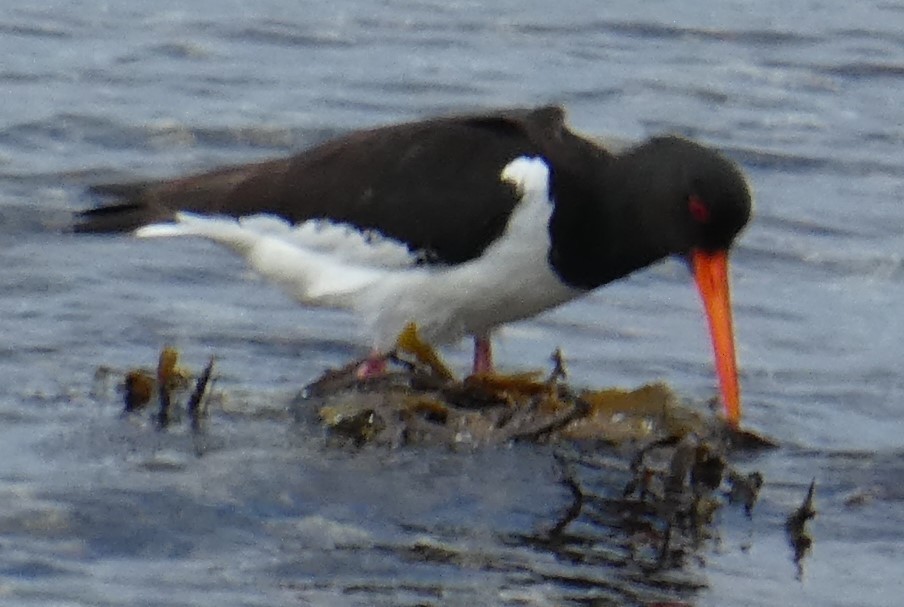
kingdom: Animalia
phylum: Chordata
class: Aves
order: Charadriiformes
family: Haematopodidae
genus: Haematopus
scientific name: Haematopus ostralegus
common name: Eurasian oystercatcher
